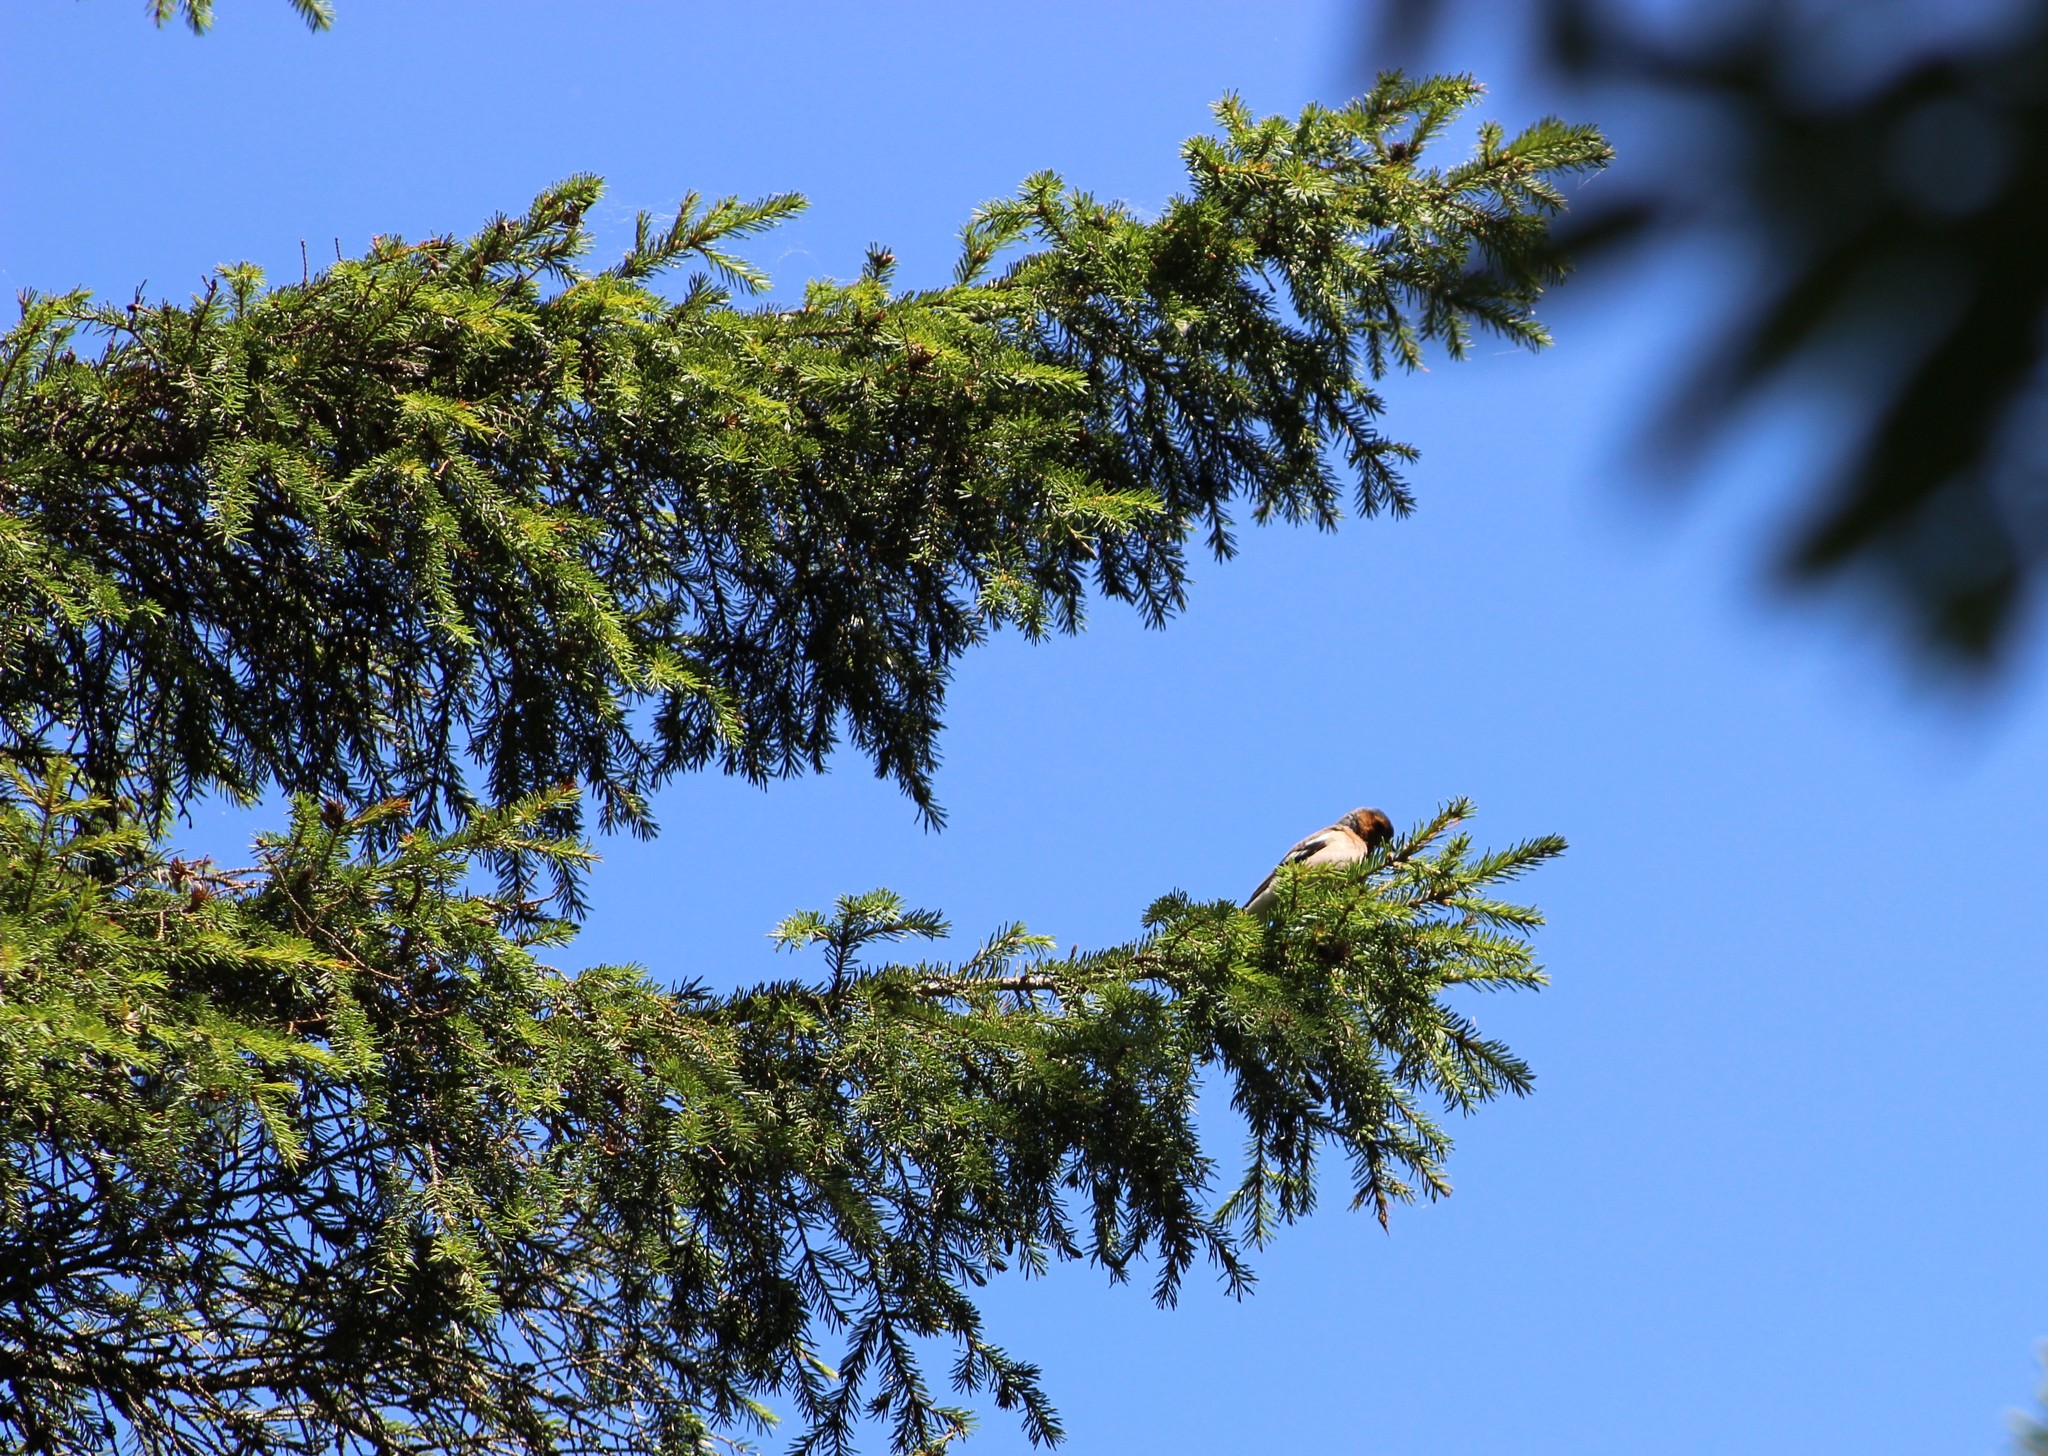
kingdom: Animalia
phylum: Chordata
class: Aves
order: Passeriformes
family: Fringillidae
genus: Fringilla
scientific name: Fringilla coelebs
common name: Common chaffinch
